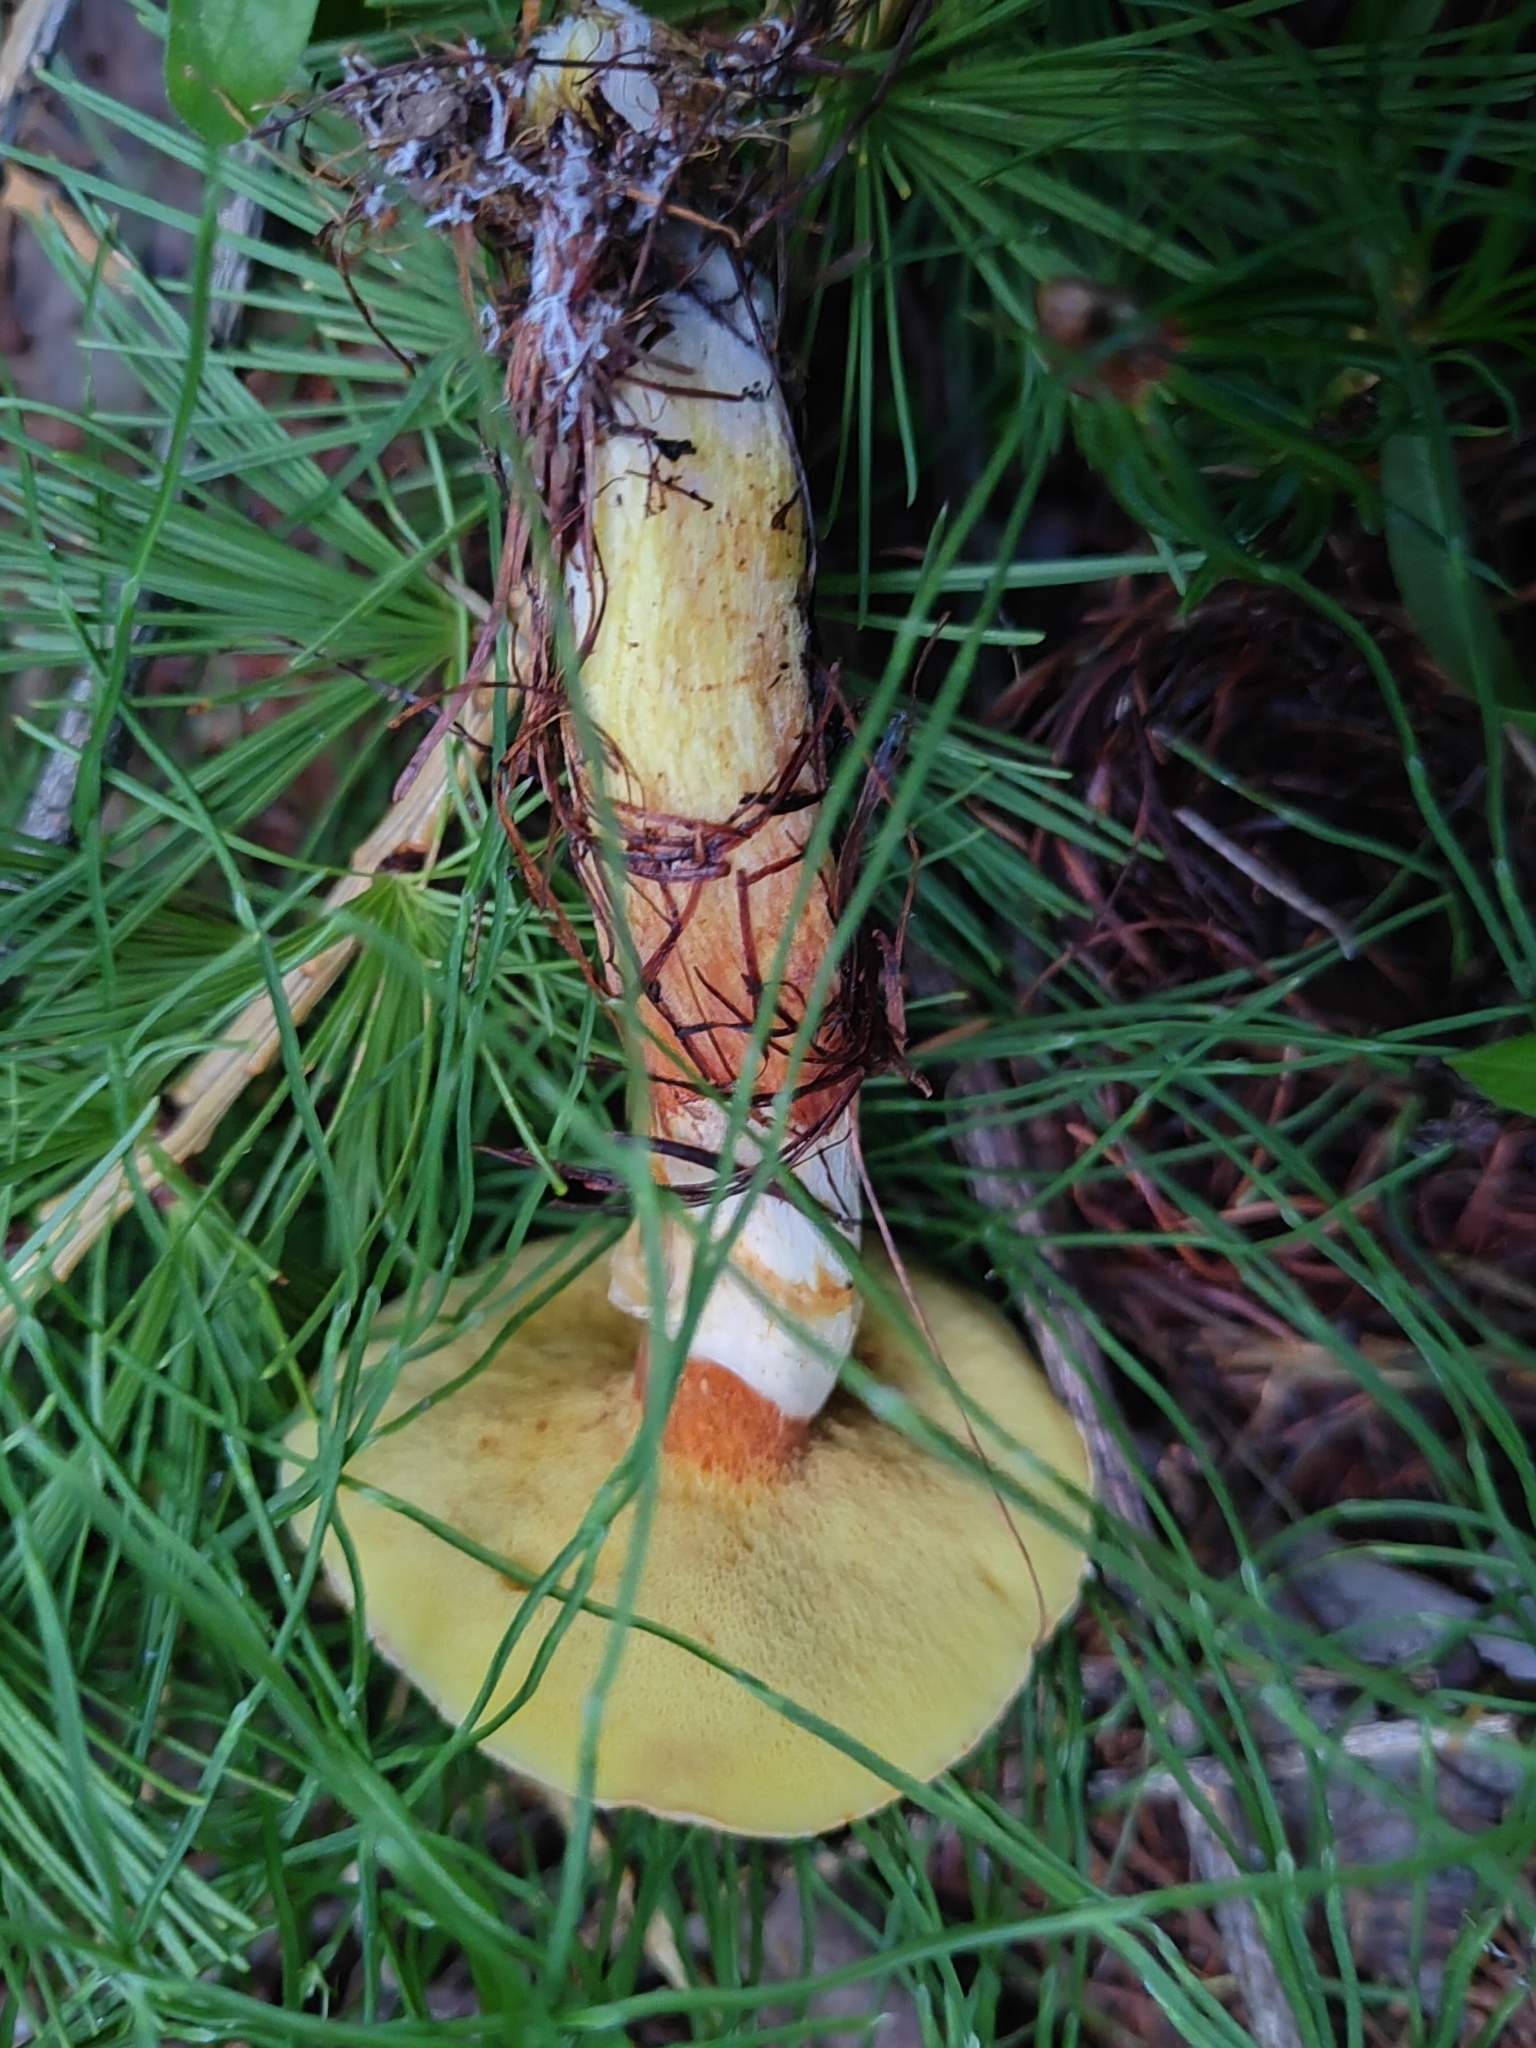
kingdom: Fungi
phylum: Basidiomycota
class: Agaricomycetes
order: Boletales
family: Suillaceae
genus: Suillus
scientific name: Suillus grevillei
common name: Larch bolete
